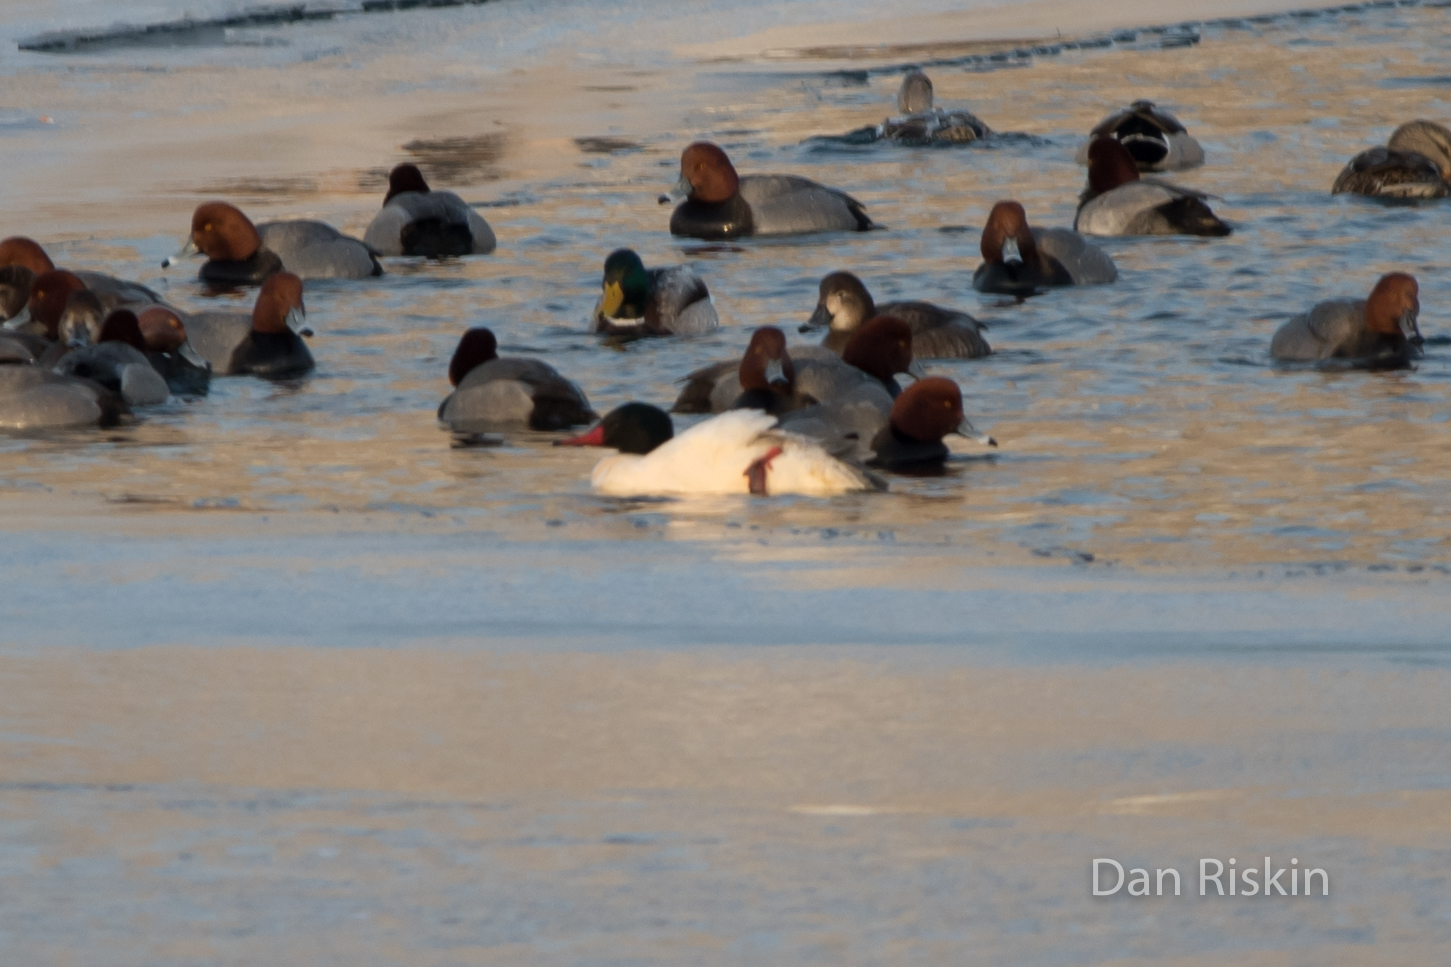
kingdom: Animalia
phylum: Chordata
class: Aves
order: Anseriformes
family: Anatidae
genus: Mergus
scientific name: Mergus merganser
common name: Common merganser
